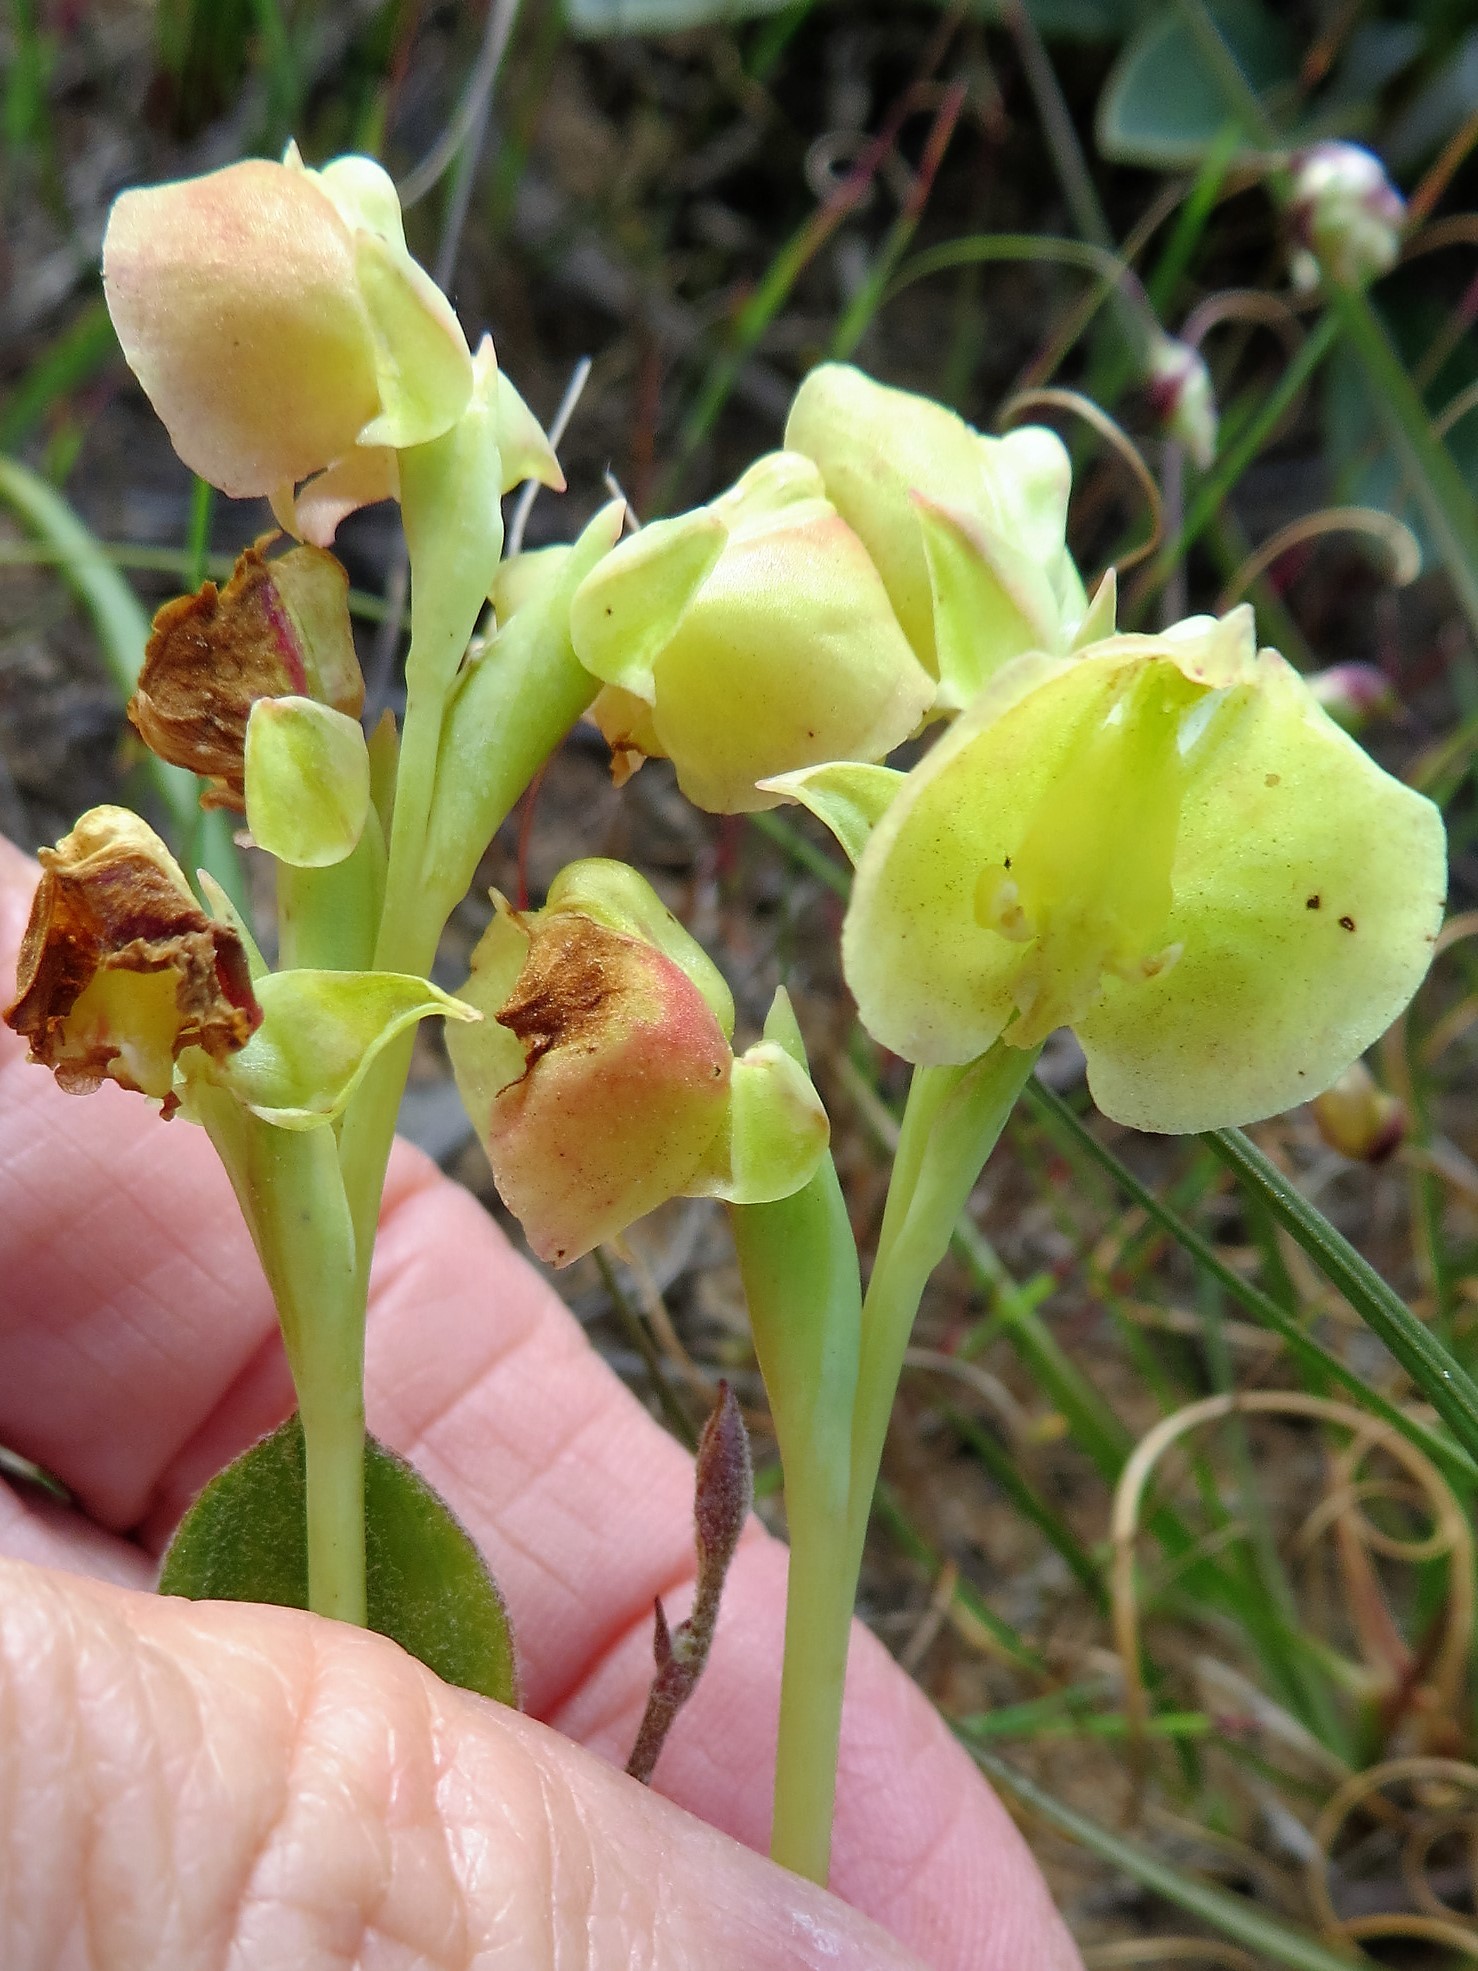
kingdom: Plantae
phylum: Tracheophyta
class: Liliopsida
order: Asparagales
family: Orchidaceae
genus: Pterygodium
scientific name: Pterygodium catholicum
